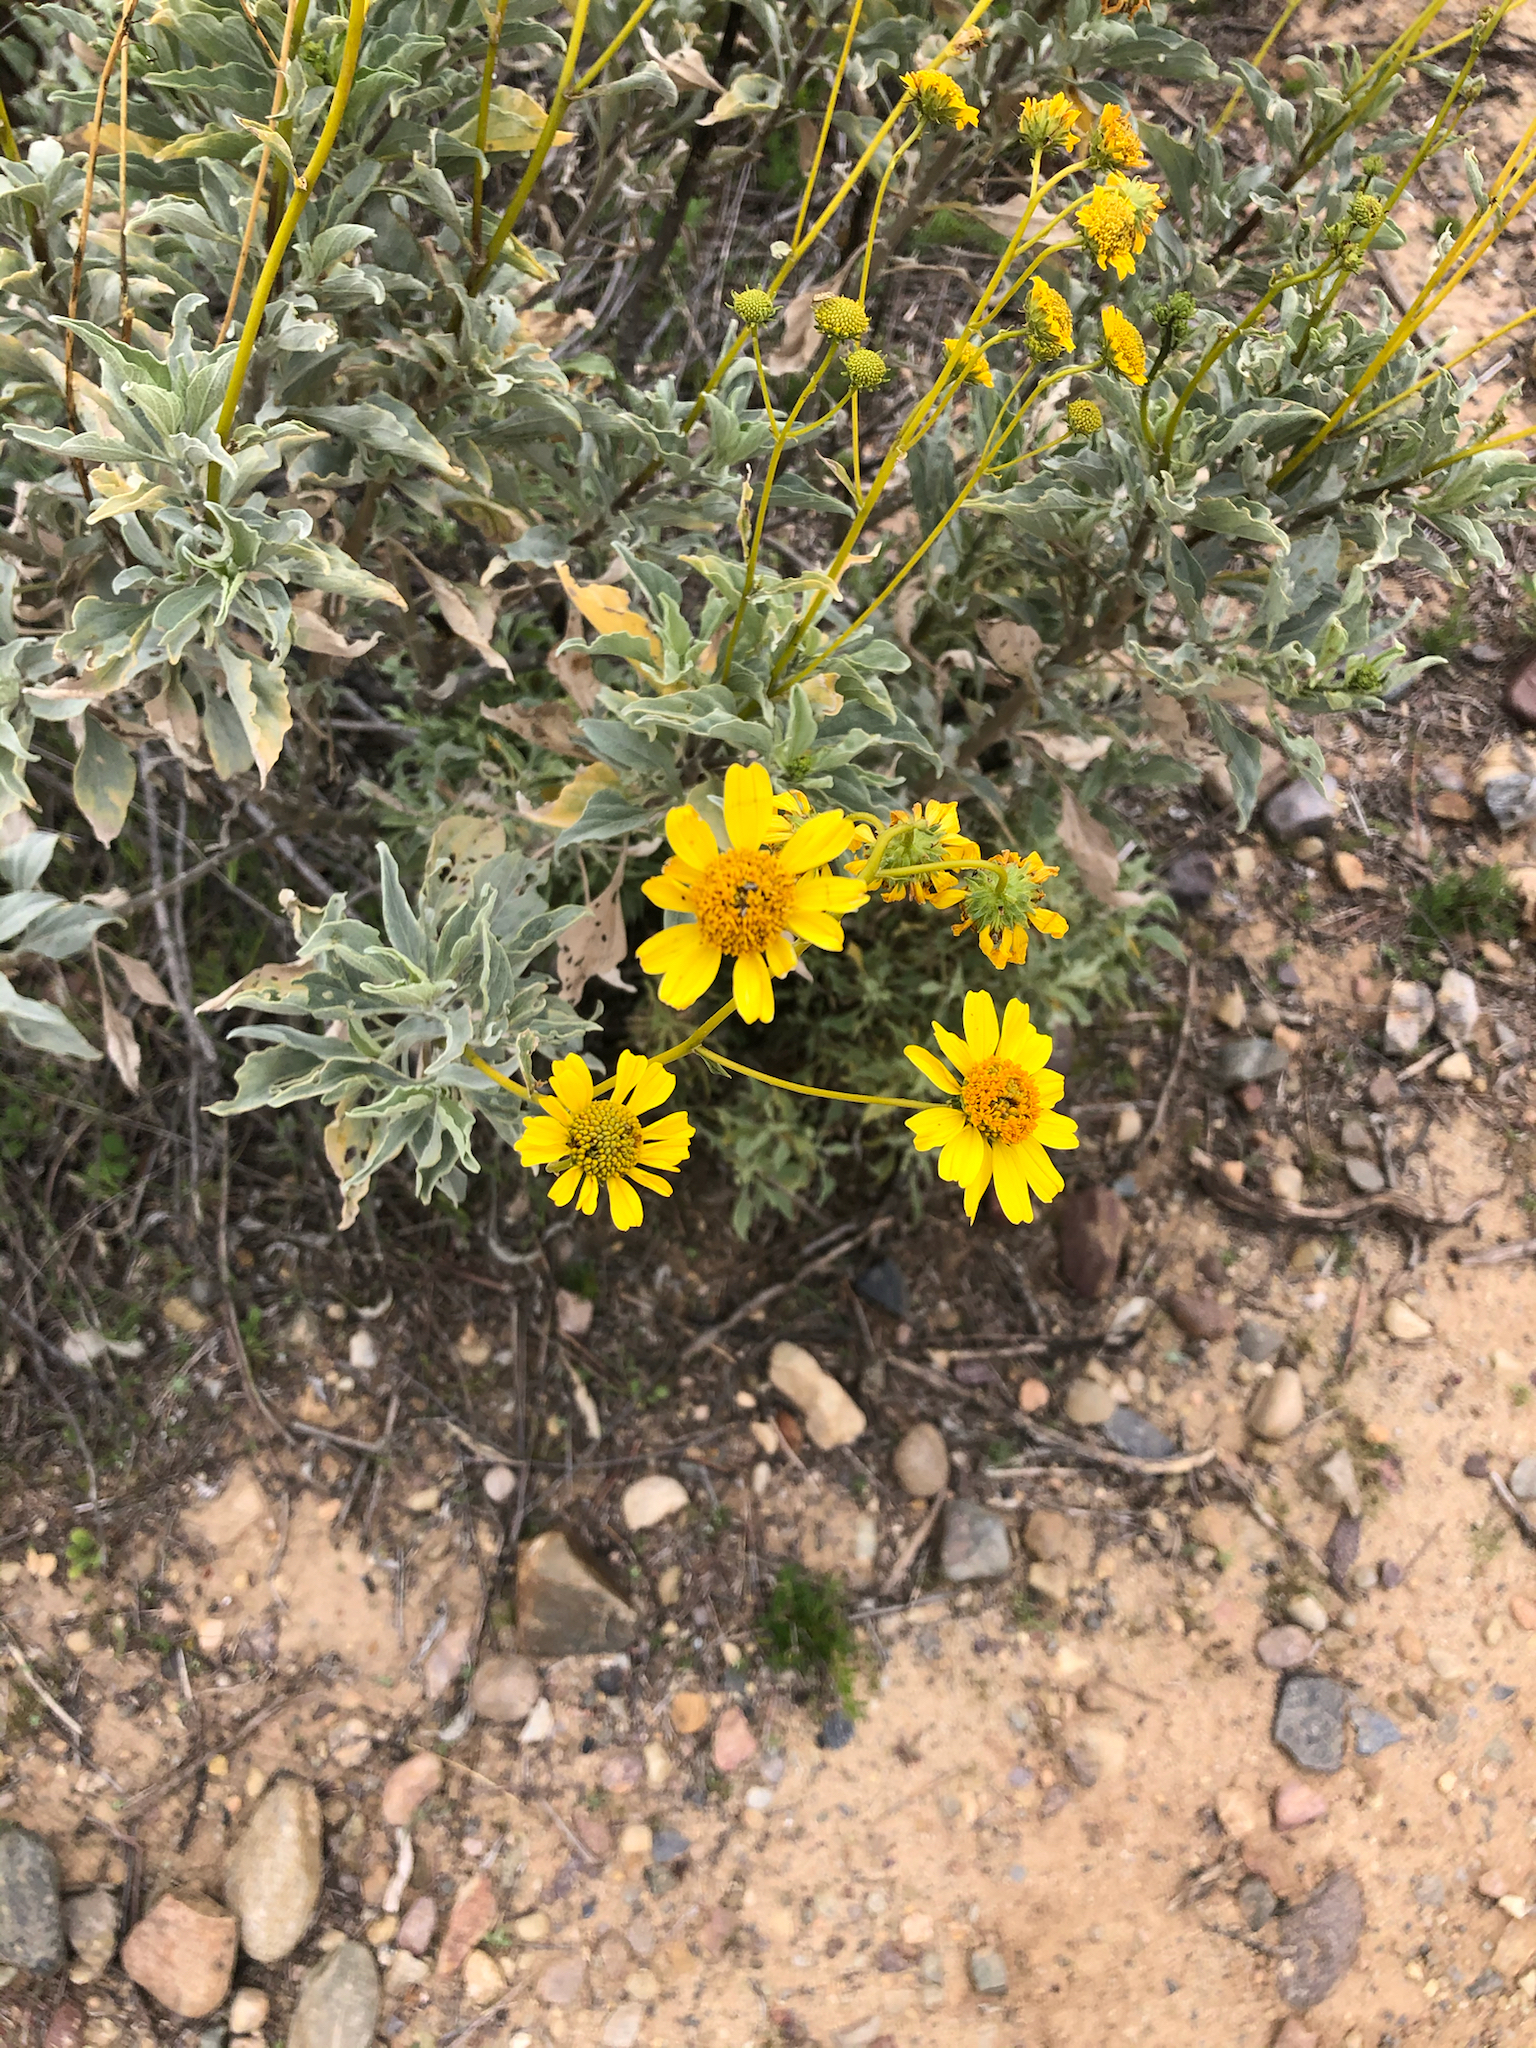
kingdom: Plantae
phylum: Tracheophyta
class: Magnoliopsida
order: Asterales
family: Asteraceae
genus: Encelia
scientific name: Encelia farinosa
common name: Brittlebush
